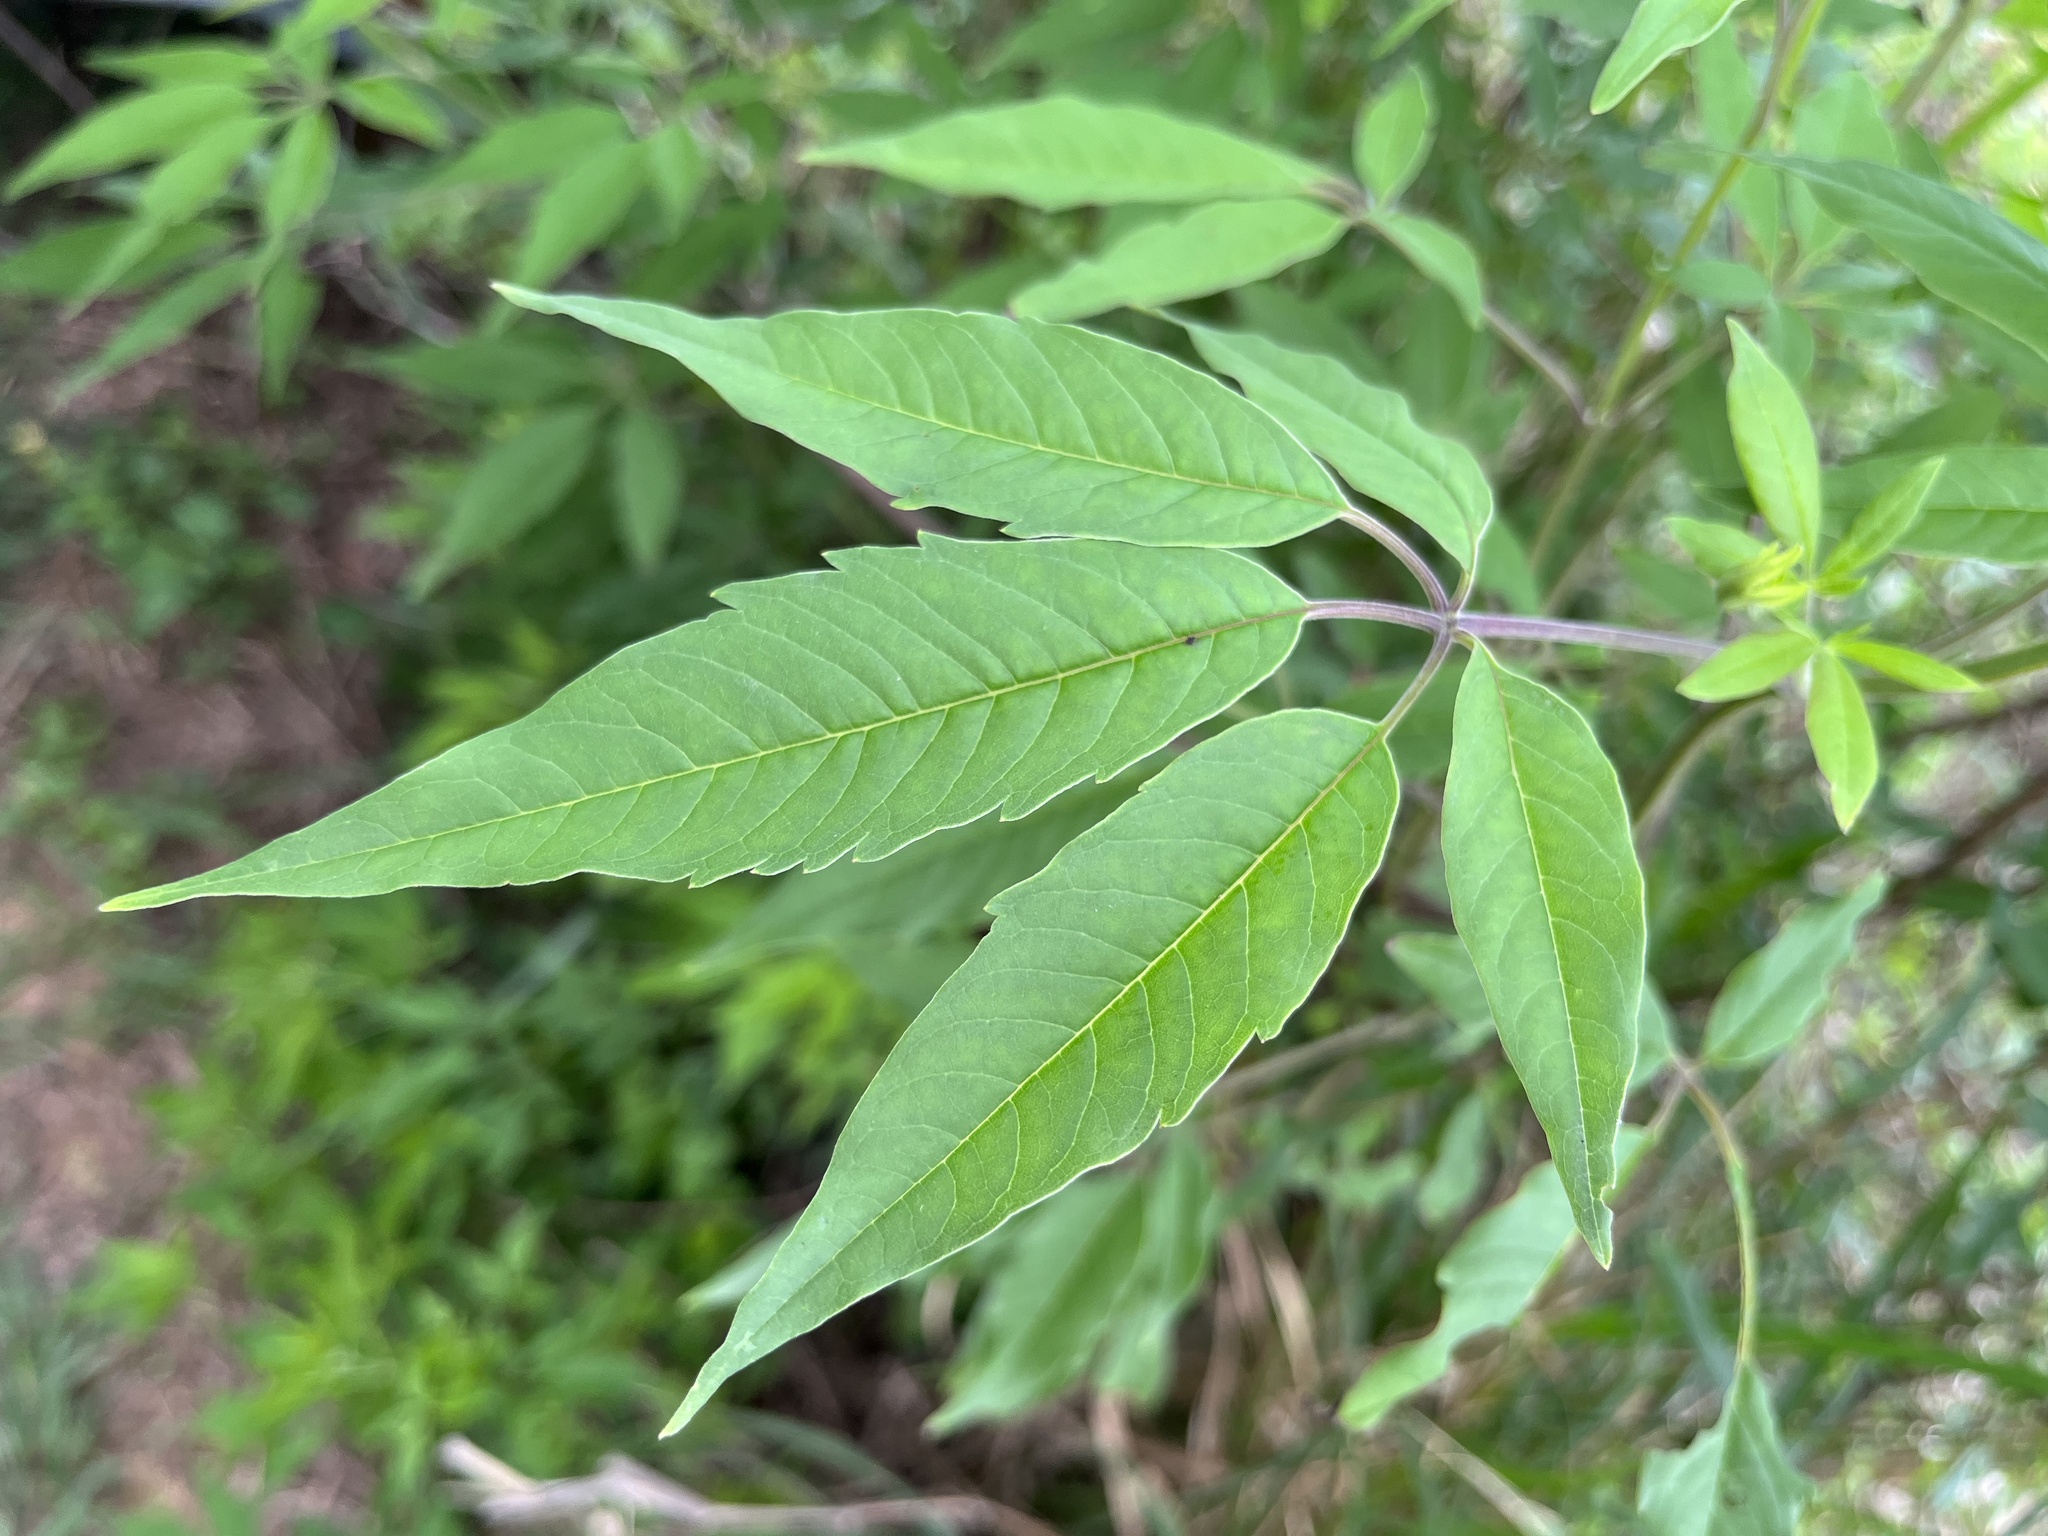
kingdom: Plantae
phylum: Tracheophyta
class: Magnoliopsida
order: Lamiales
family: Lamiaceae
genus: Vitex
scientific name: Vitex negundo
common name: Chinese chastetree
